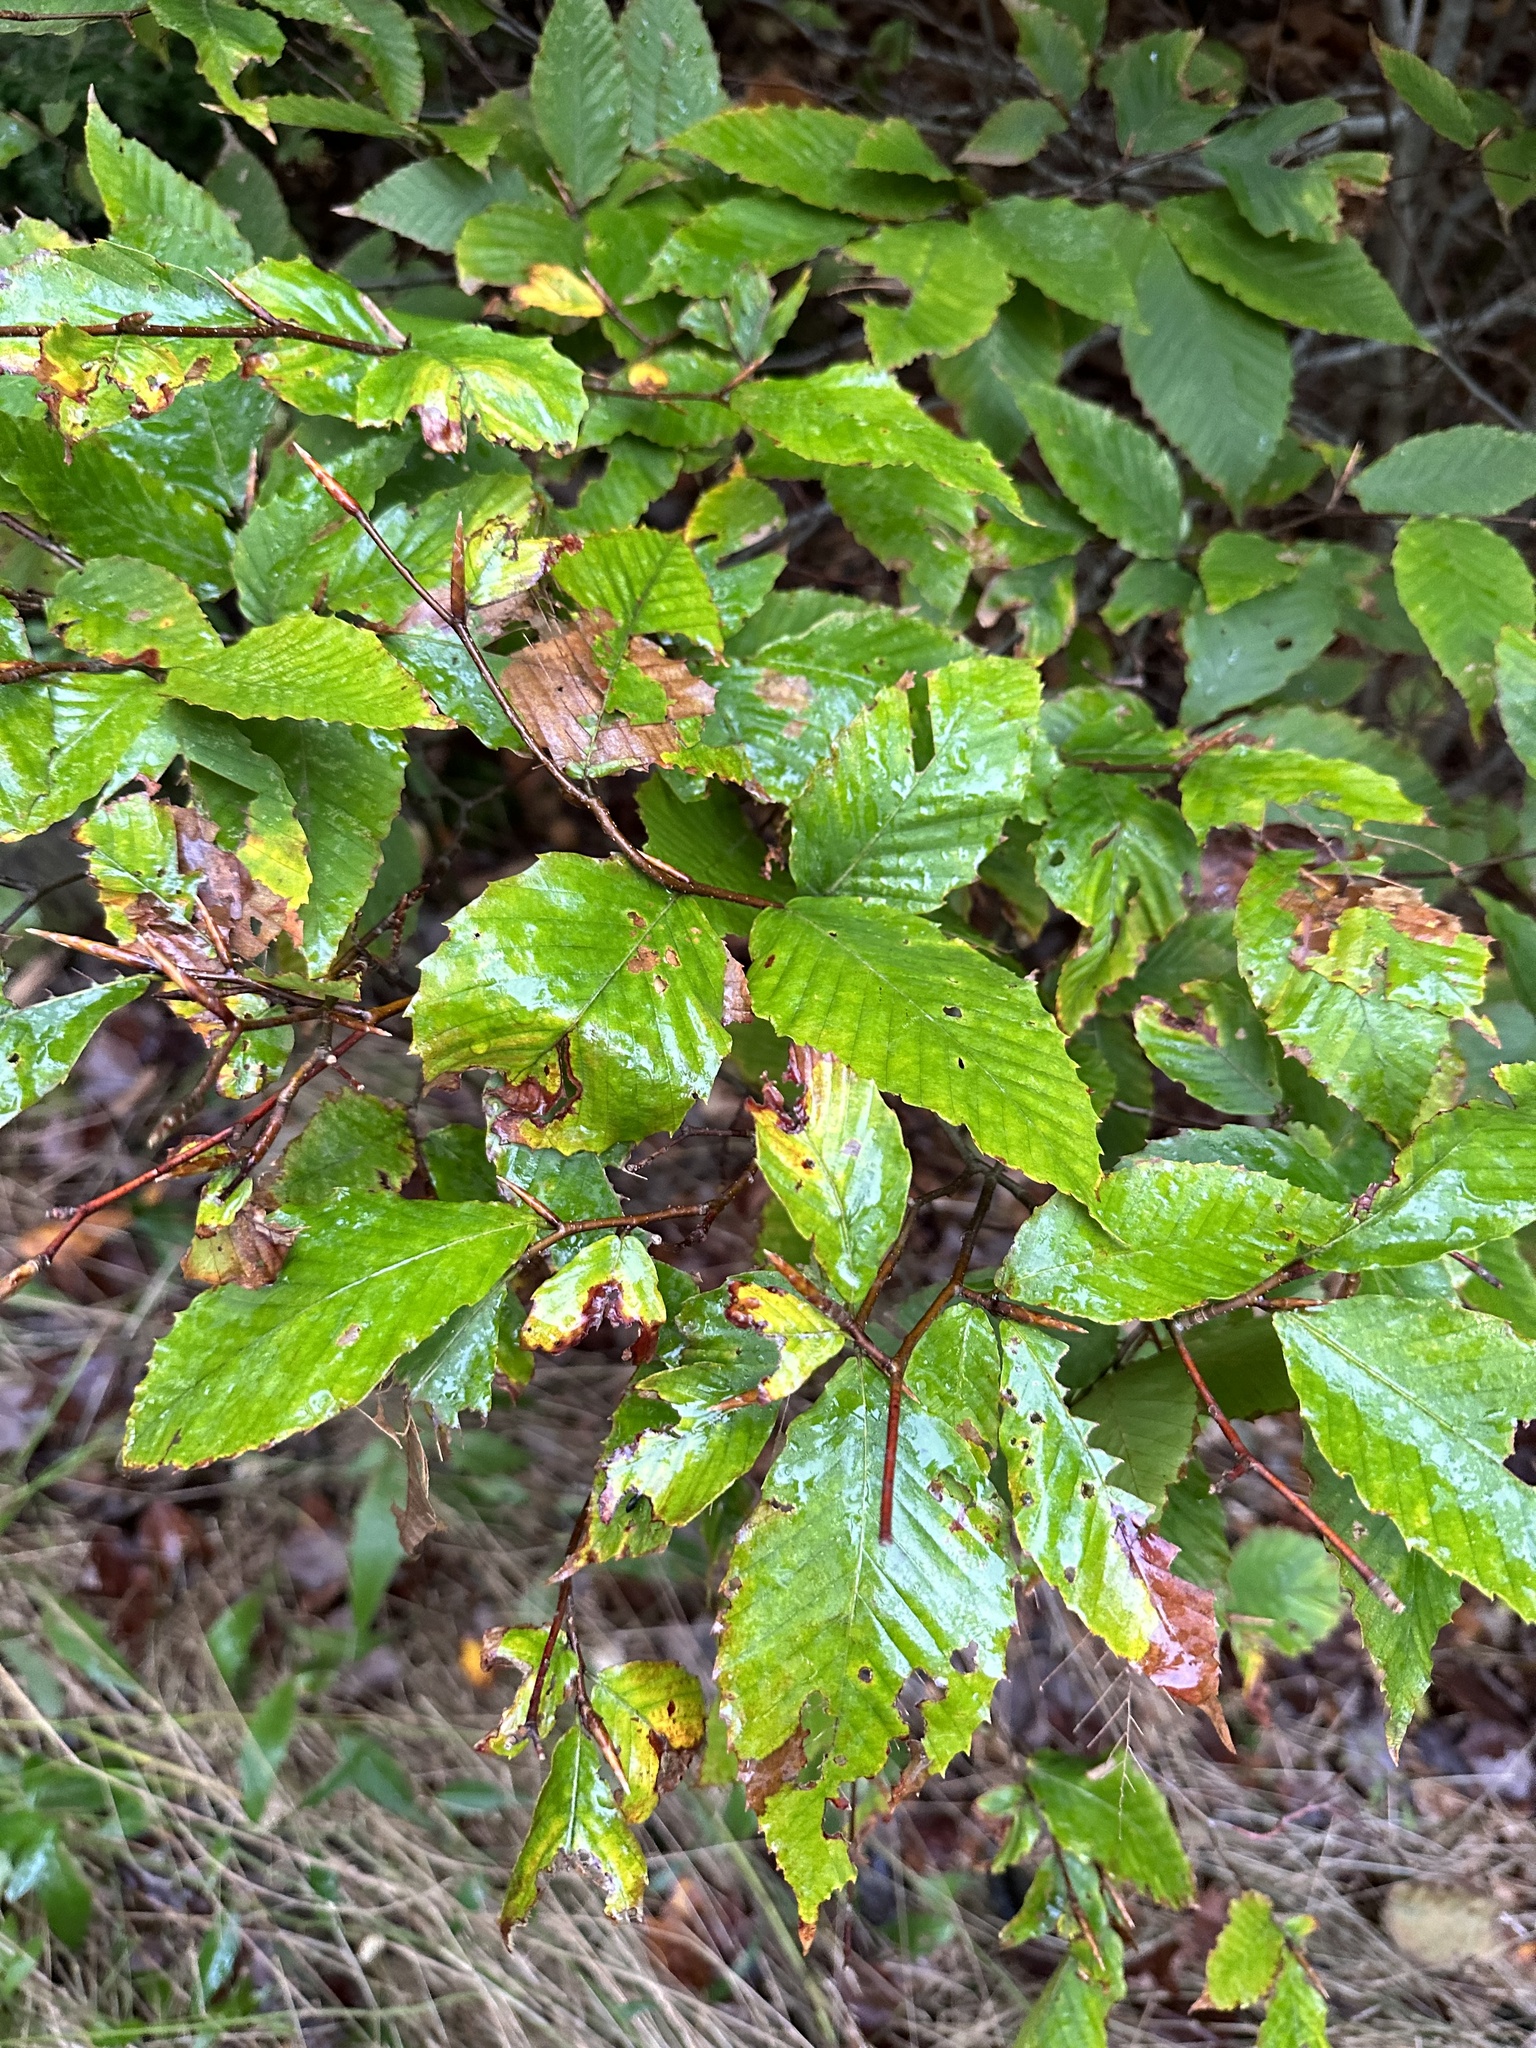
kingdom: Plantae
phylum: Tracheophyta
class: Magnoliopsida
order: Fagales
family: Fagaceae
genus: Fagus
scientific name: Fagus grandifolia
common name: American beech
